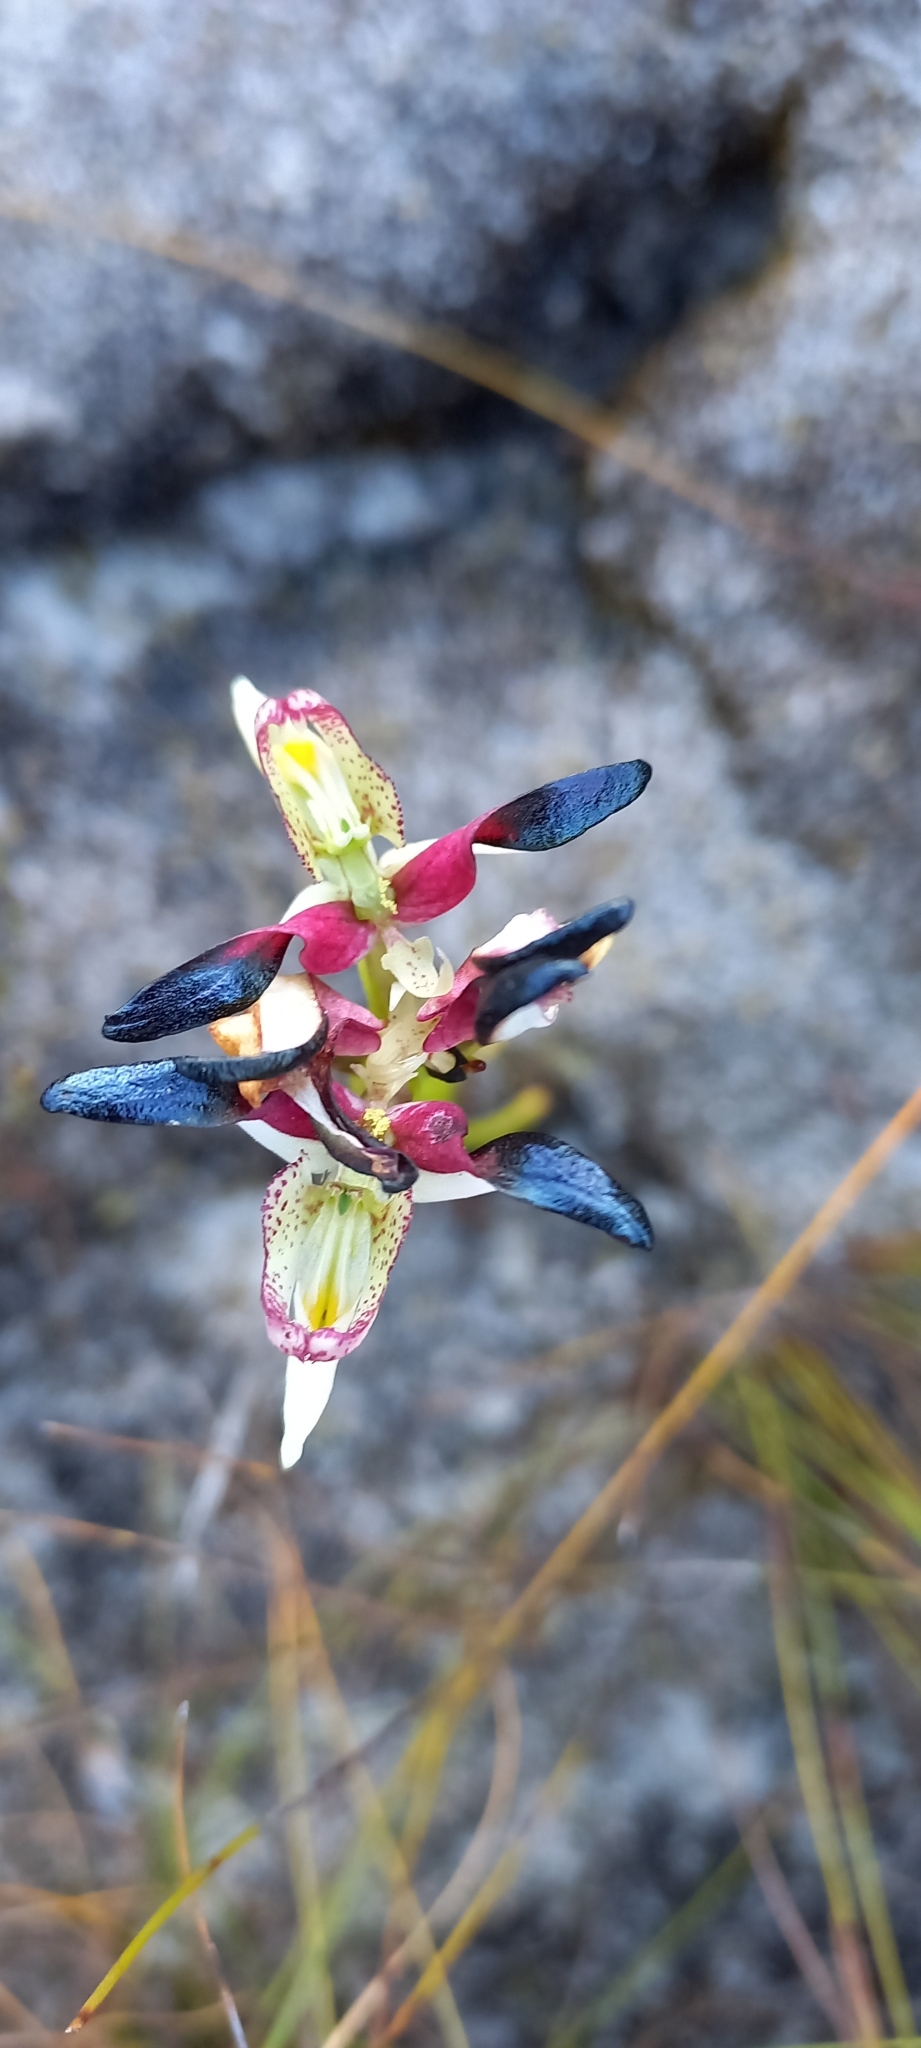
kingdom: Plantae
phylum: Tracheophyta
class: Liliopsida
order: Asparagales
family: Orchidaceae
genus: Disa
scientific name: Disa atricapilla
